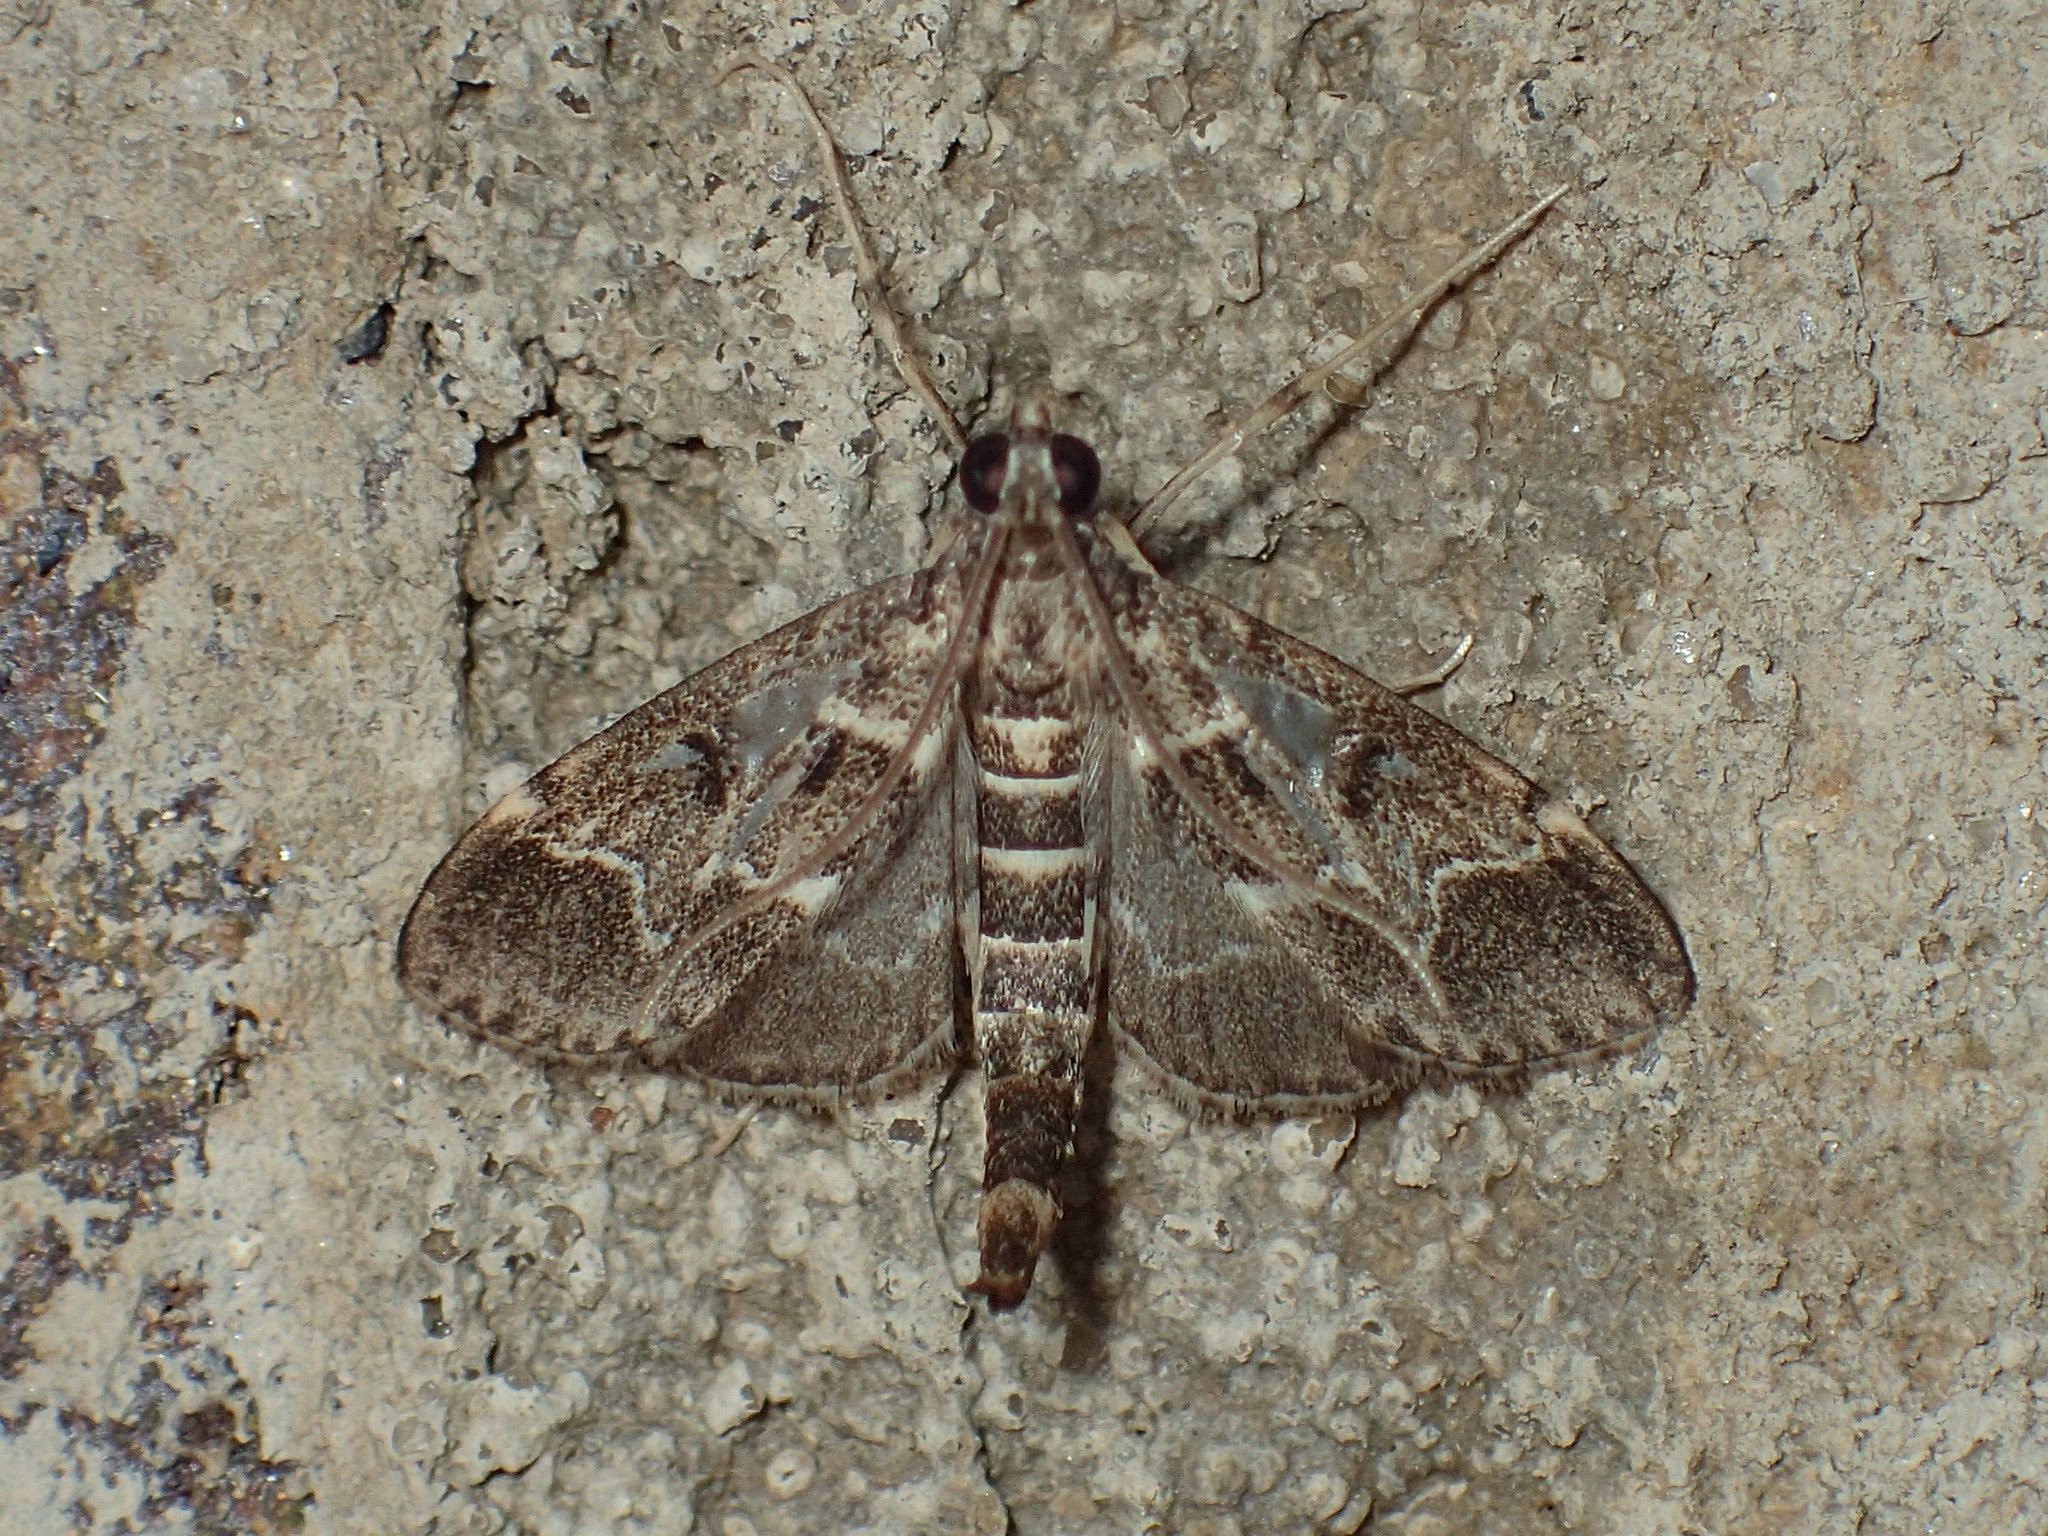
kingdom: Animalia
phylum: Arthropoda
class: Insecta
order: Lepidoptera
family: Crambidae
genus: Duponchelia
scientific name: Duponchelia fovealis
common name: Crambid moth
